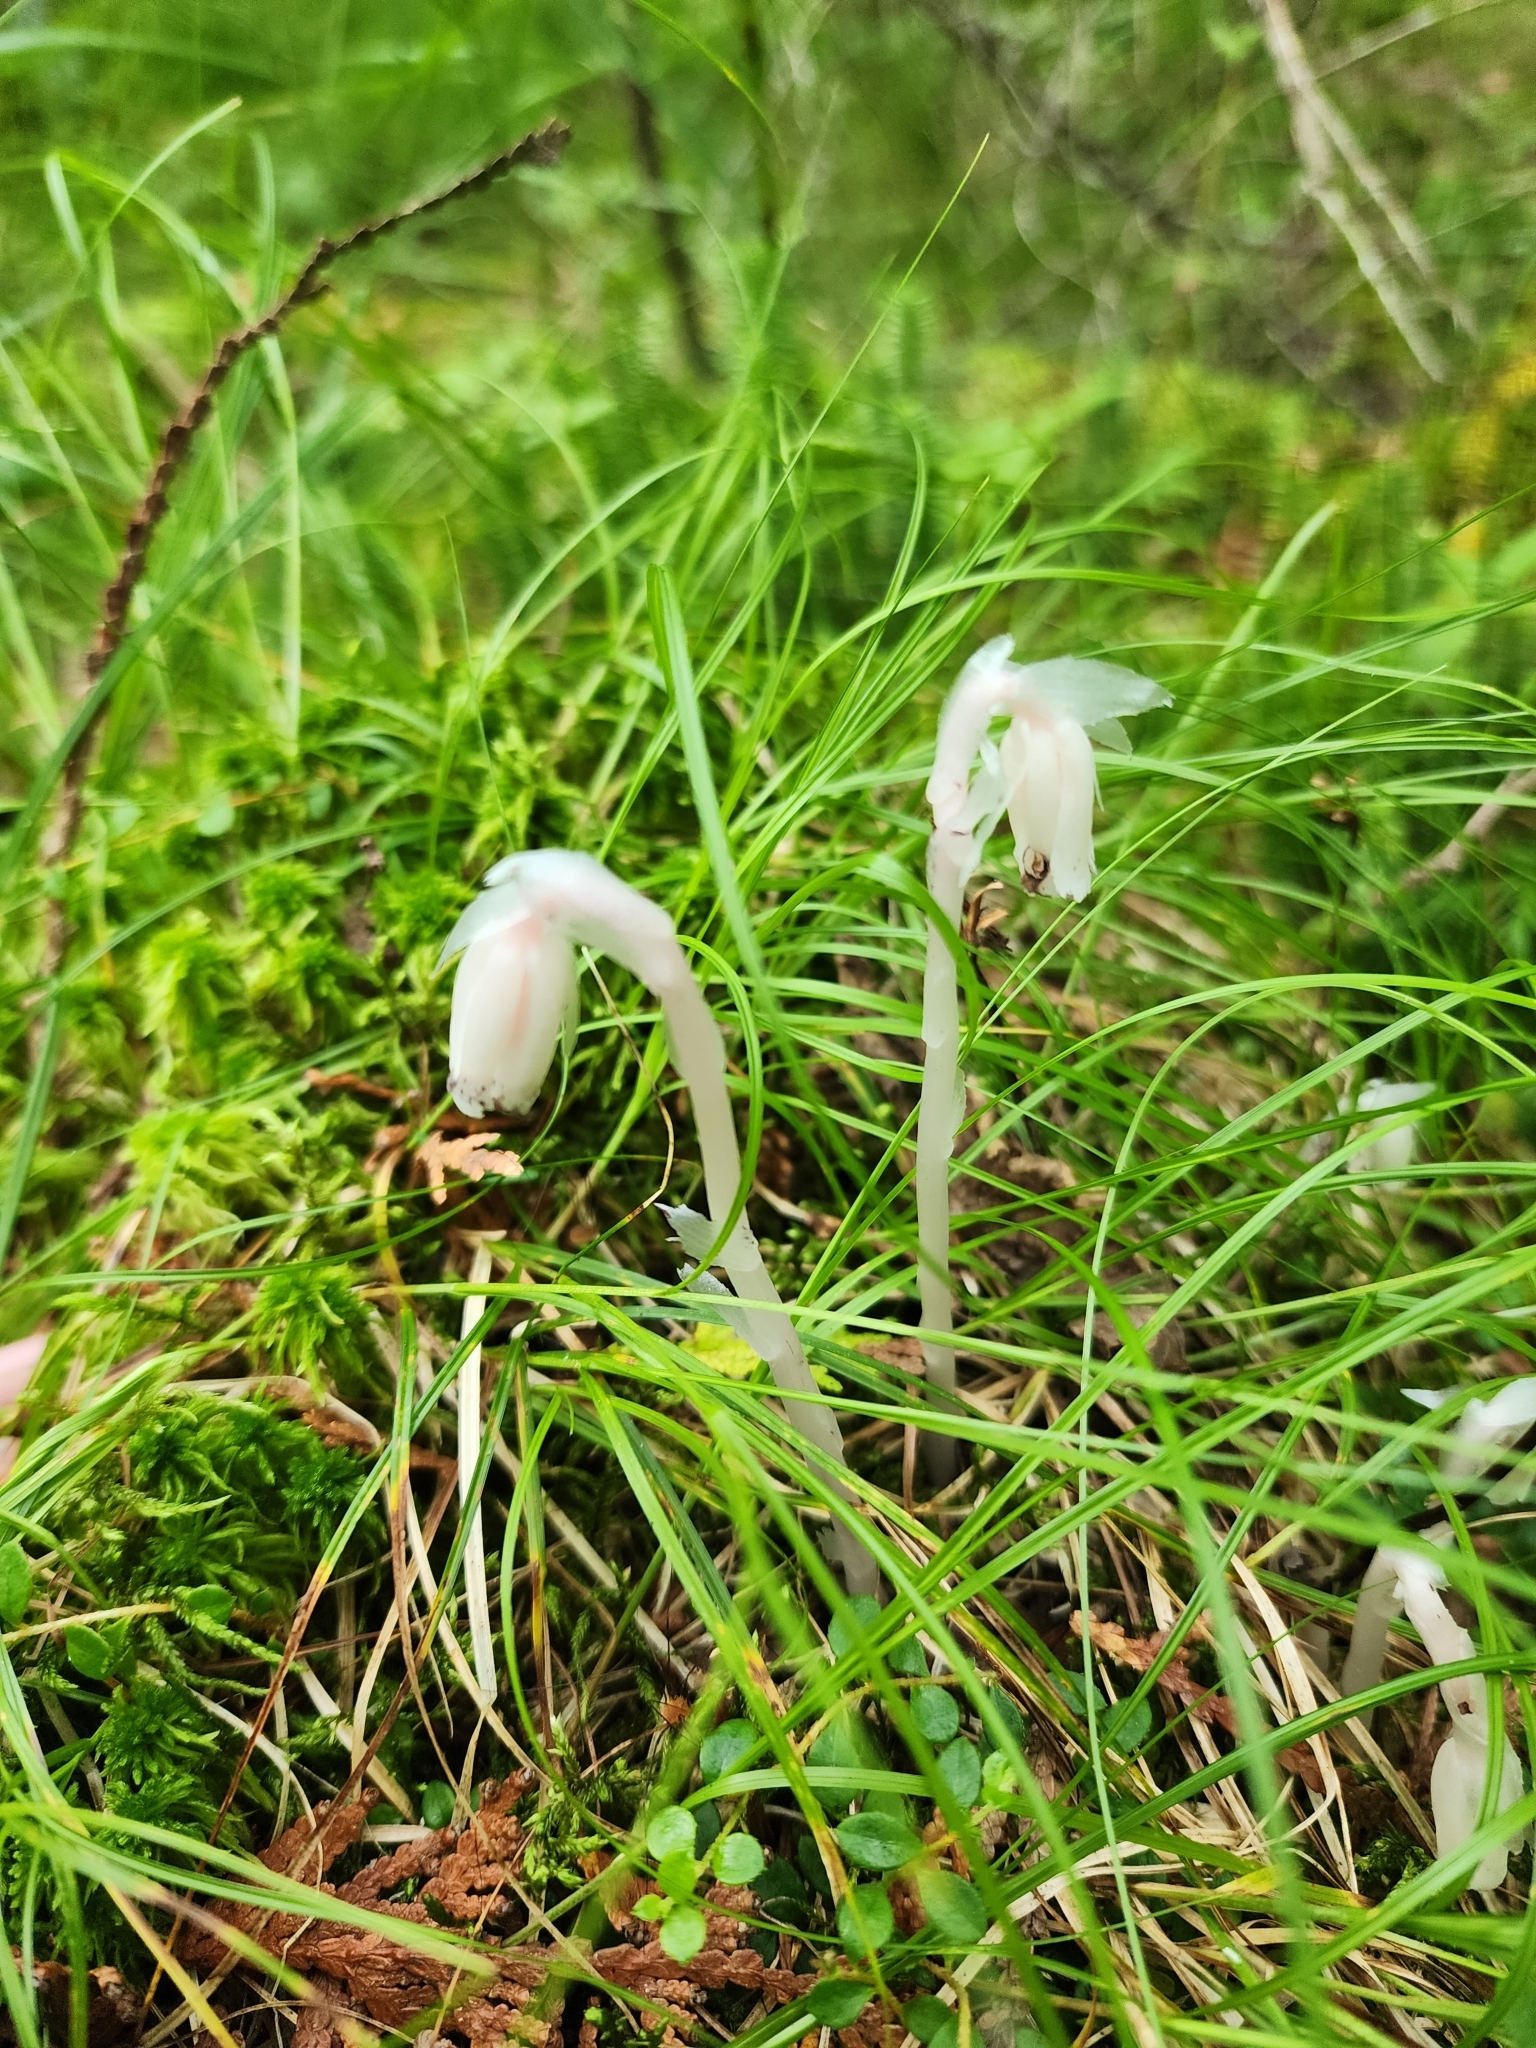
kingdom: Plantae
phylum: Tracheophyta
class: Magnoliopsida
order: Ericales
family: Ericaceae
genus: Monotropa
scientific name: Monotropa uniflora
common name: Convulsion root
